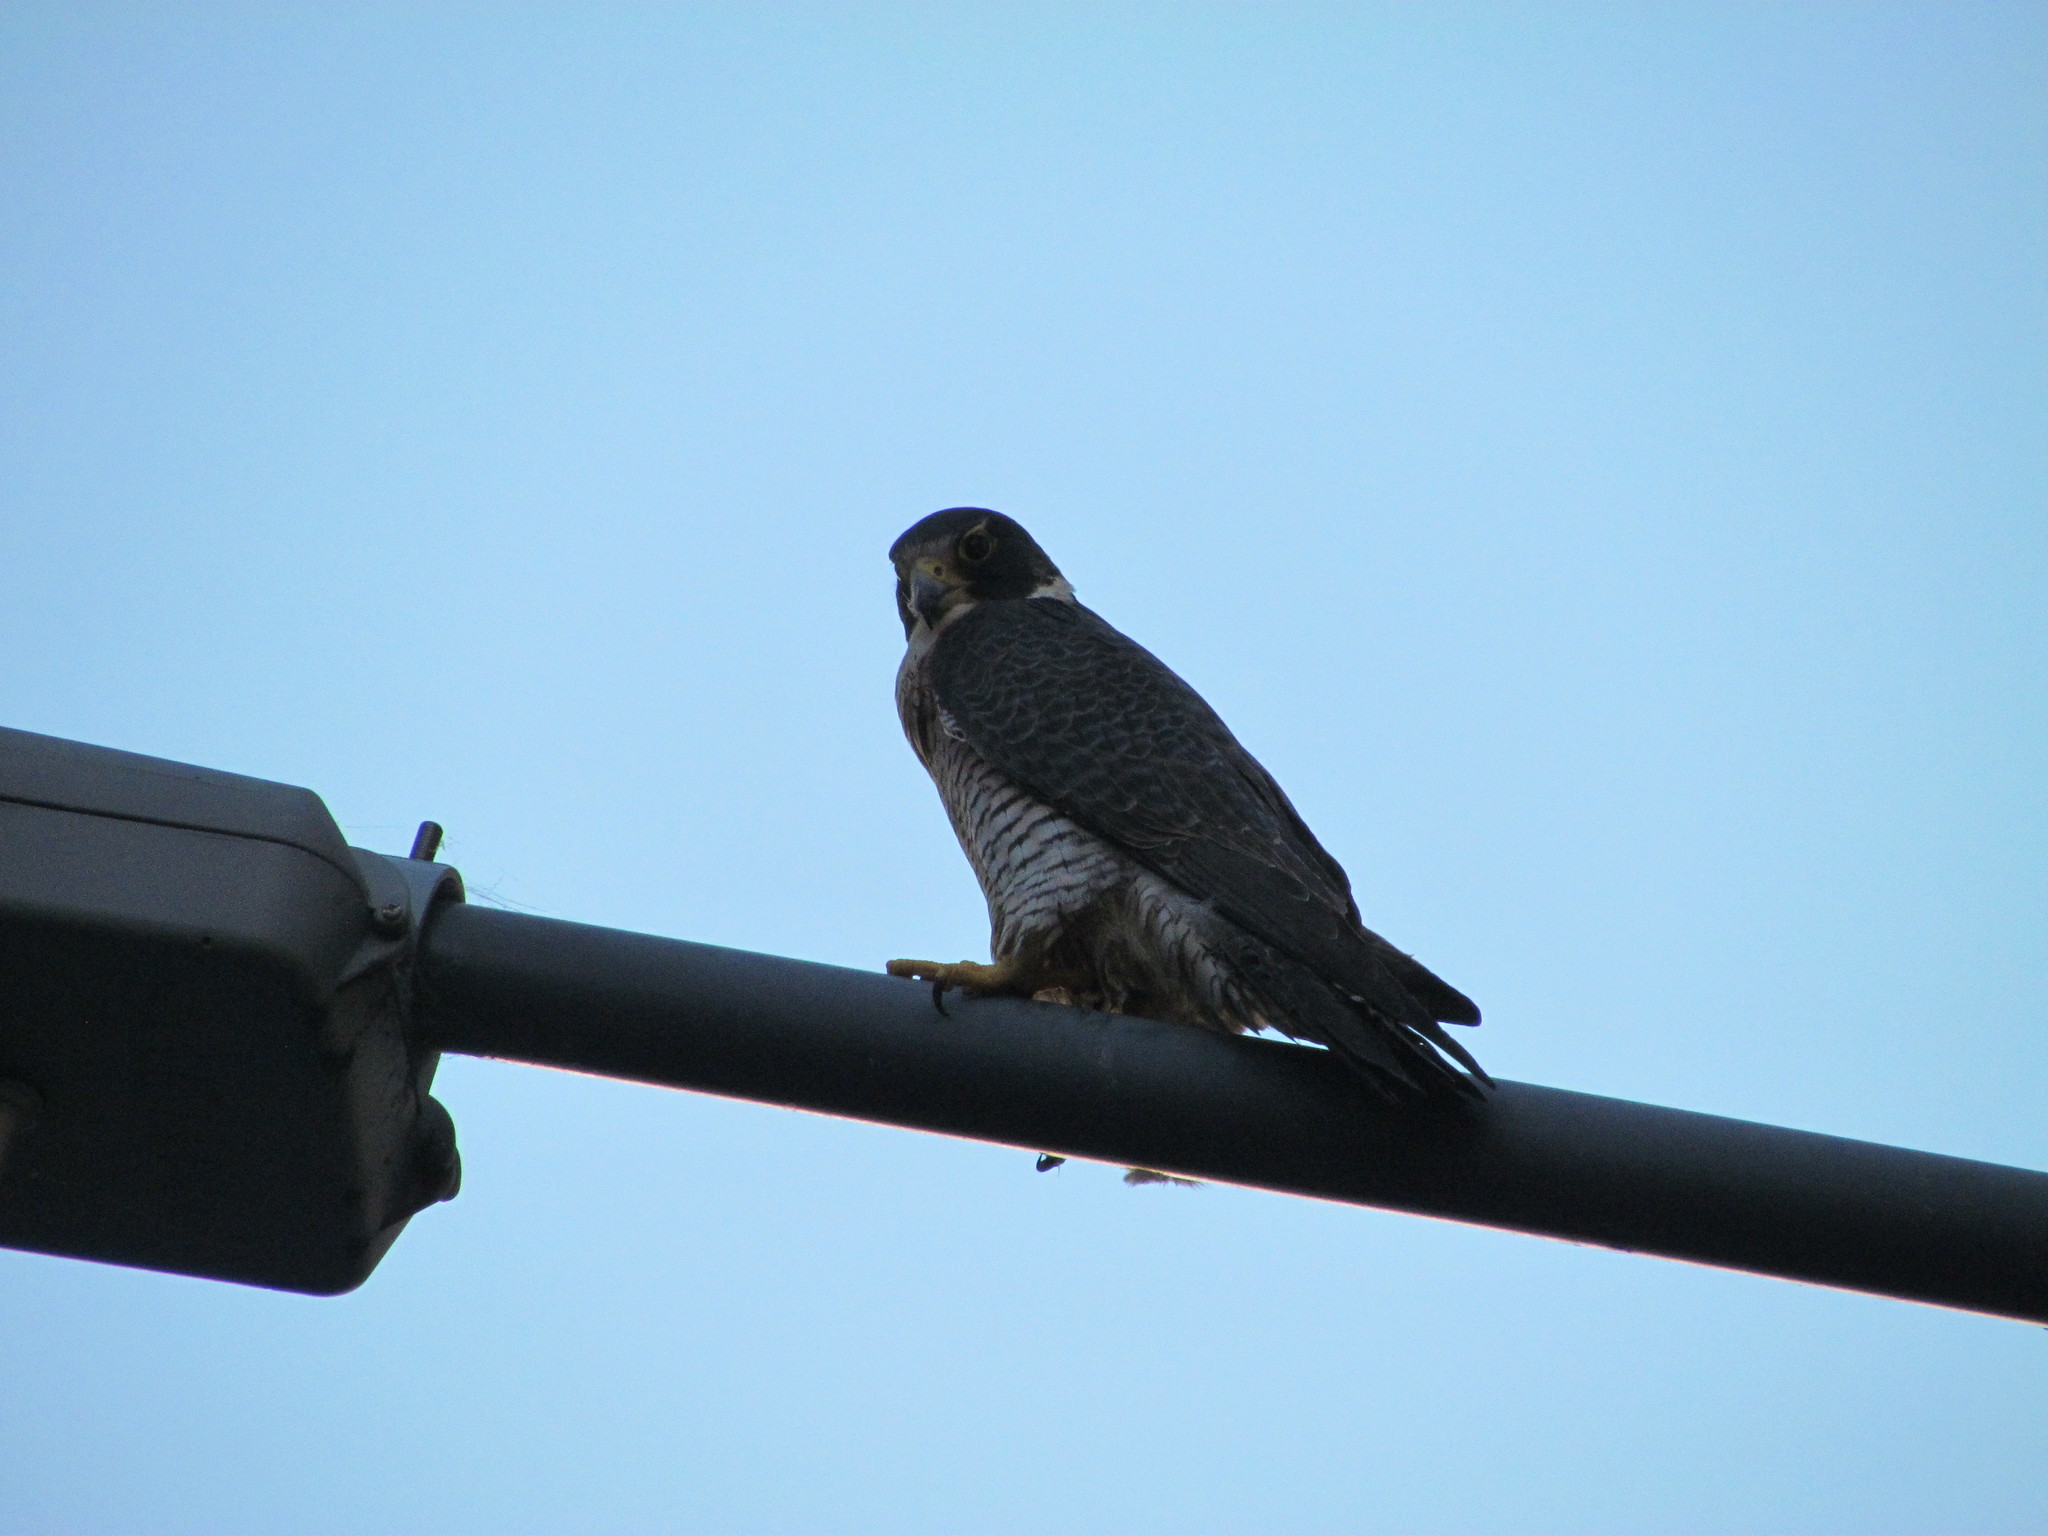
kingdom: Animalia
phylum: Chordata
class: Aves
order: Falconiformes
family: Falconidae
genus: Falco
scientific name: Falco peregrinus
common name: Peregrine falcon
